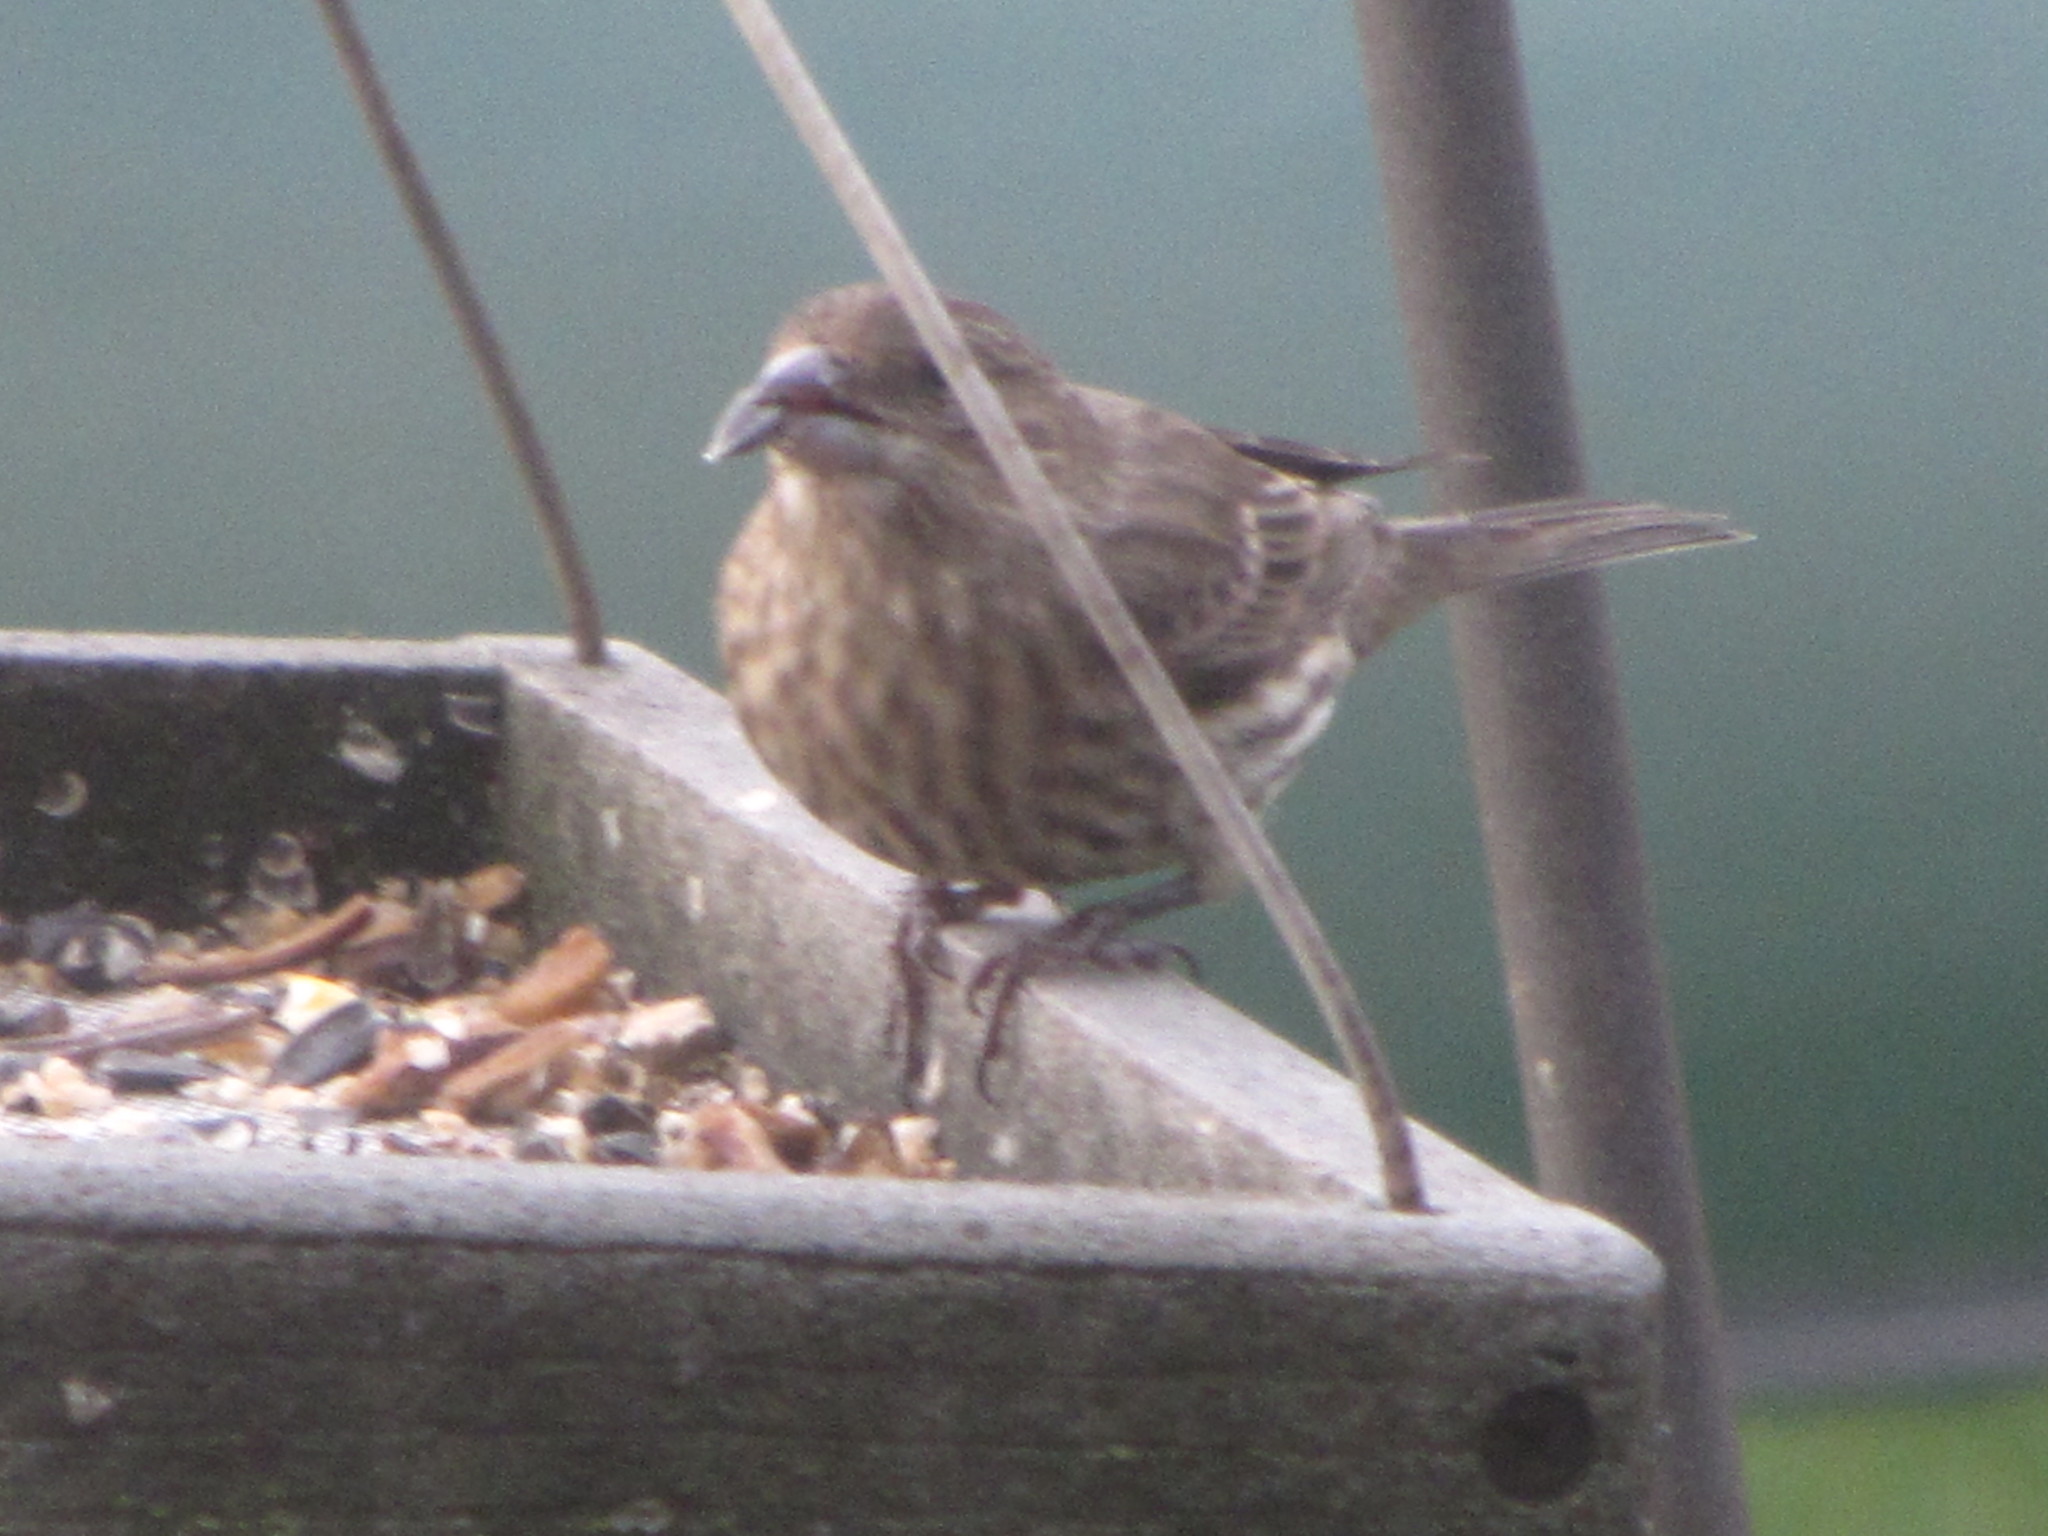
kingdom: Animalia
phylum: Chordata
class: Aves
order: Passeriformes
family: Fringillidae
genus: Haemorhous
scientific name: Haemorhous mexicanus
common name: House finch
